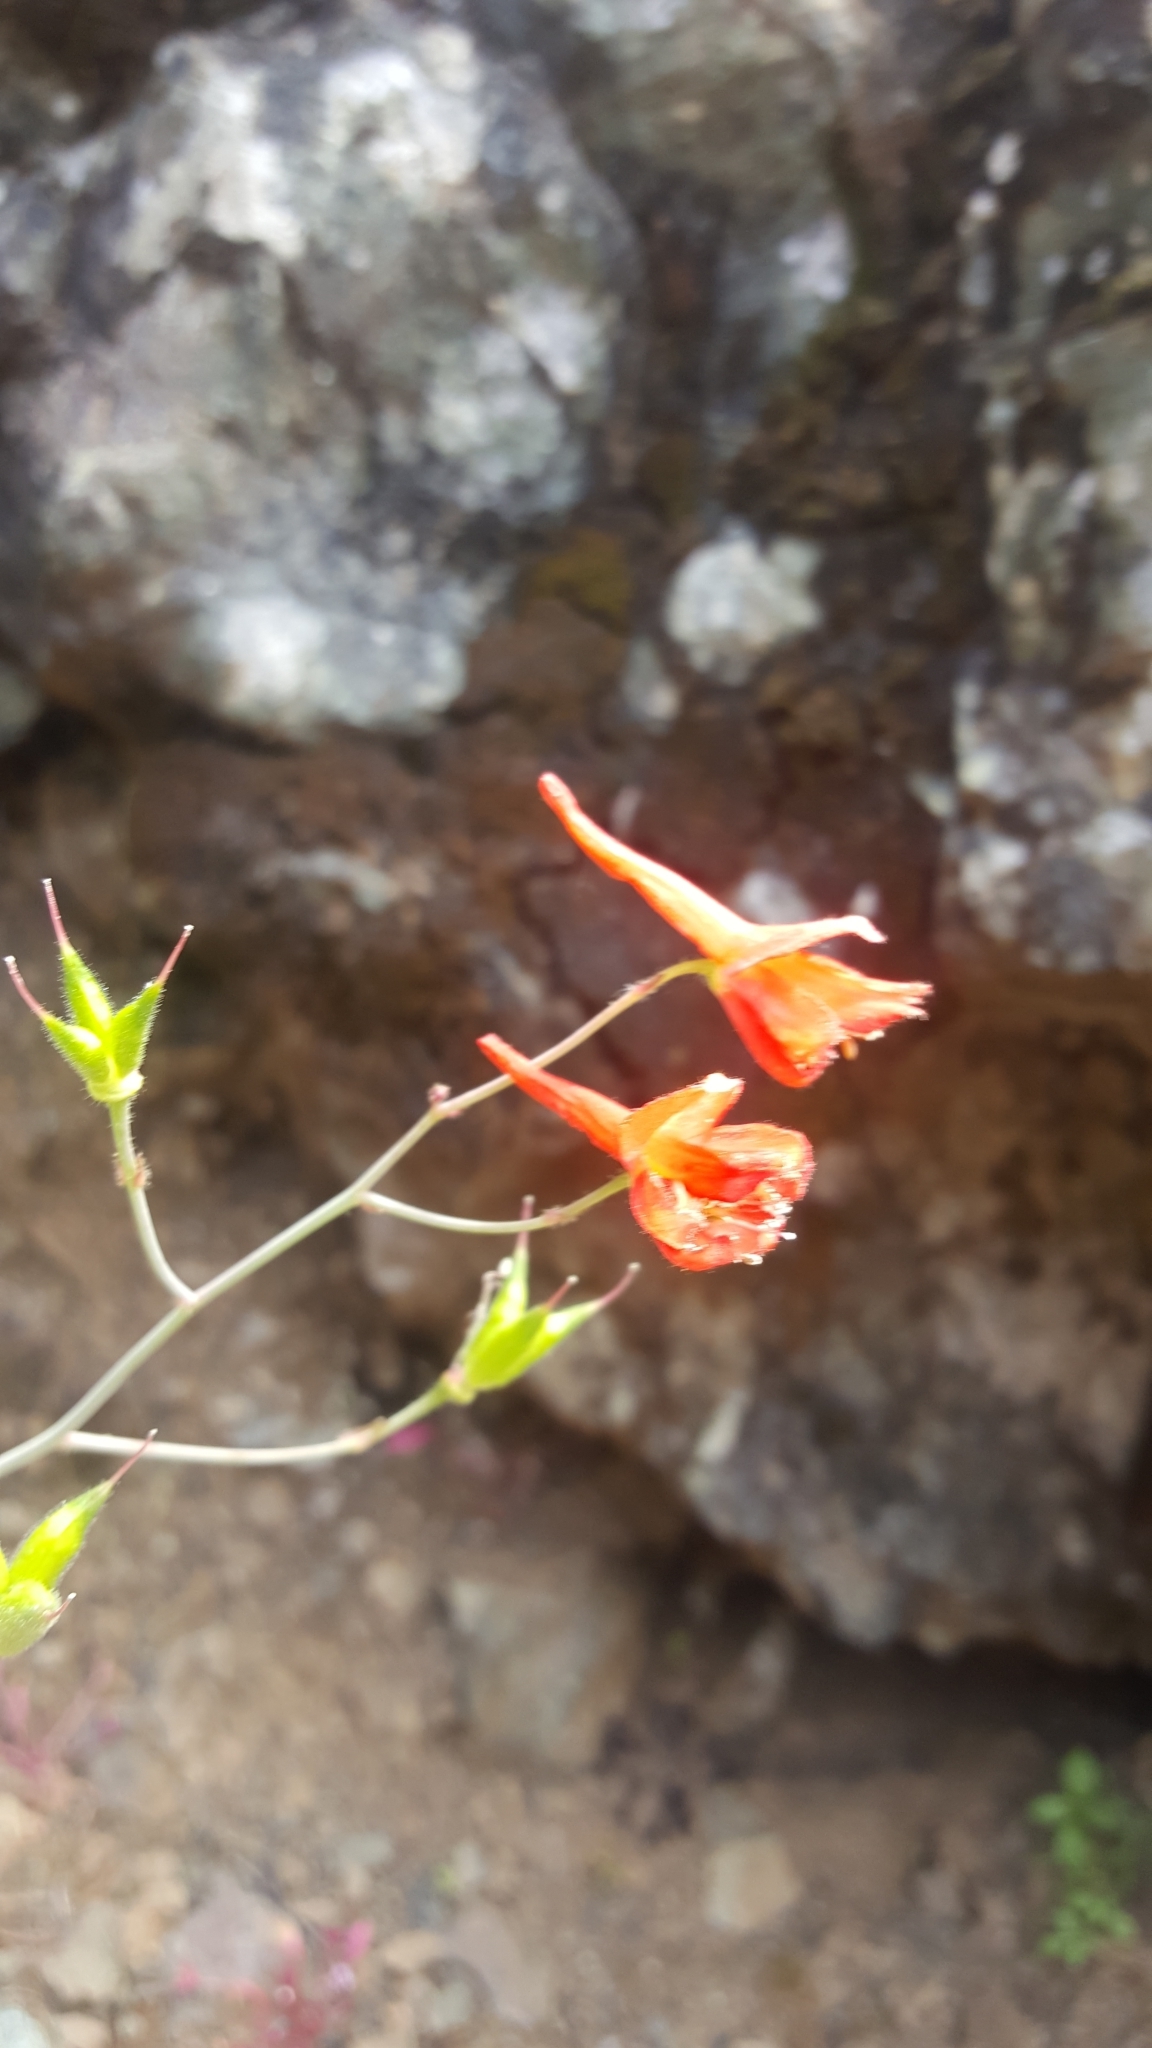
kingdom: Plantae
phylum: Tracheophyta
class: Magnoliopsida
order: Ranunculales
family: Ranunculaceae
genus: Delphinium
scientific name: Delphinium nudicaule
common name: Red larkspur
